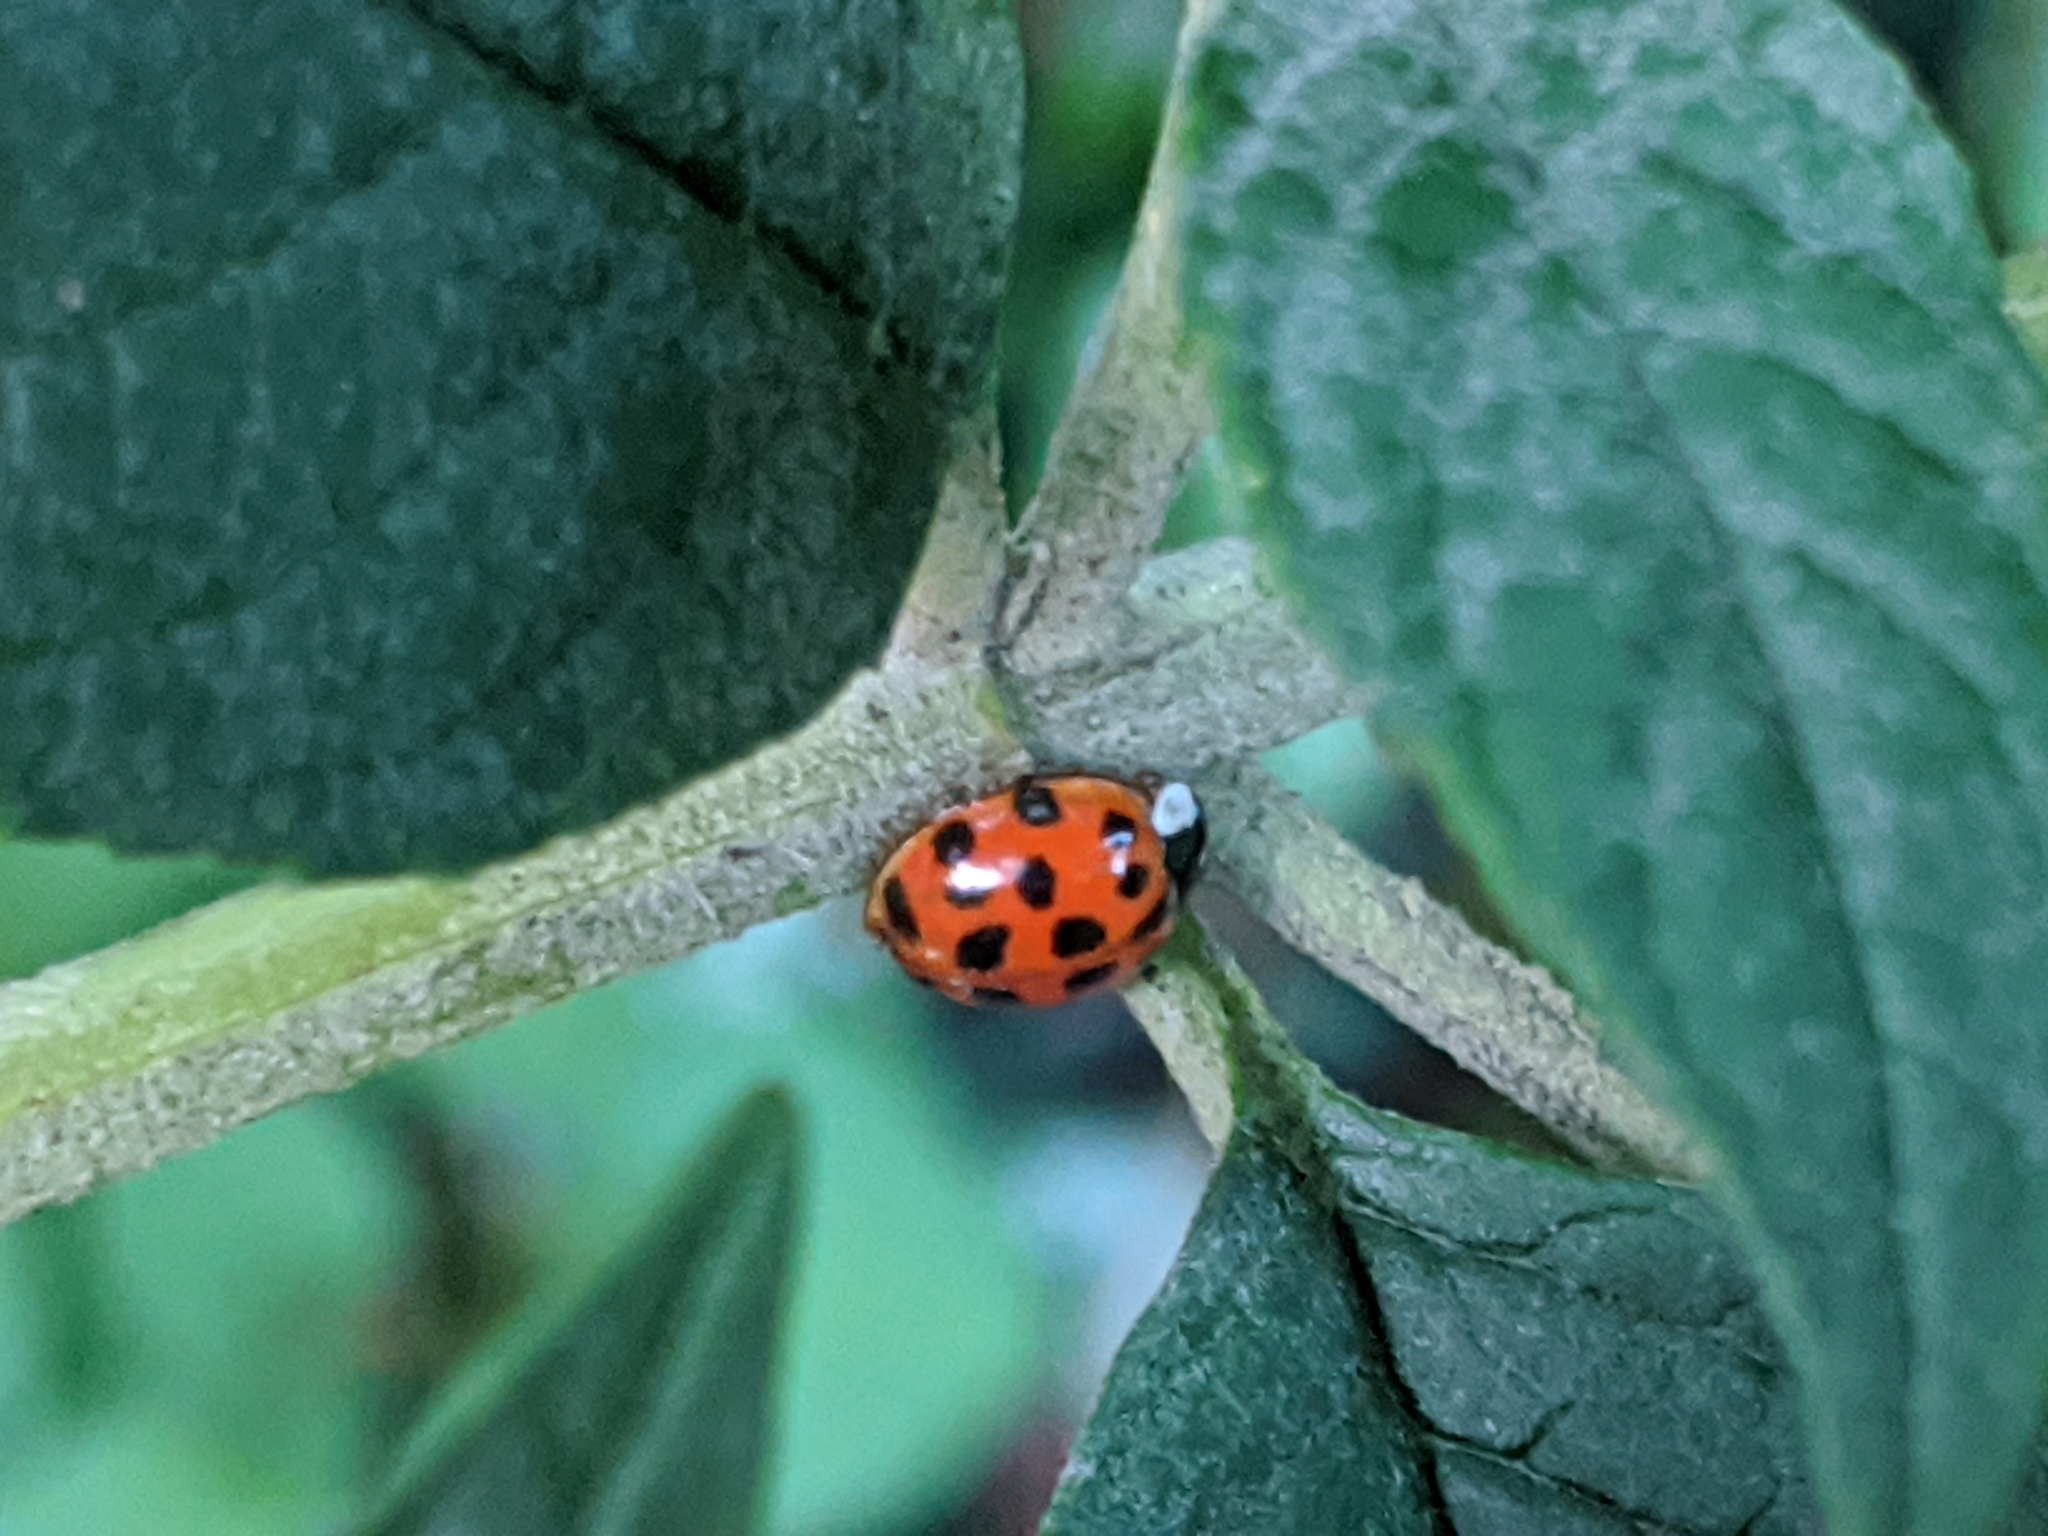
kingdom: Animalia
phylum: Arthropoda
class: Insecta
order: Coleoptera
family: Coccinellidae
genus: Harmonia
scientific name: Harmonia axyridis
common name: Harlequin ladybird
